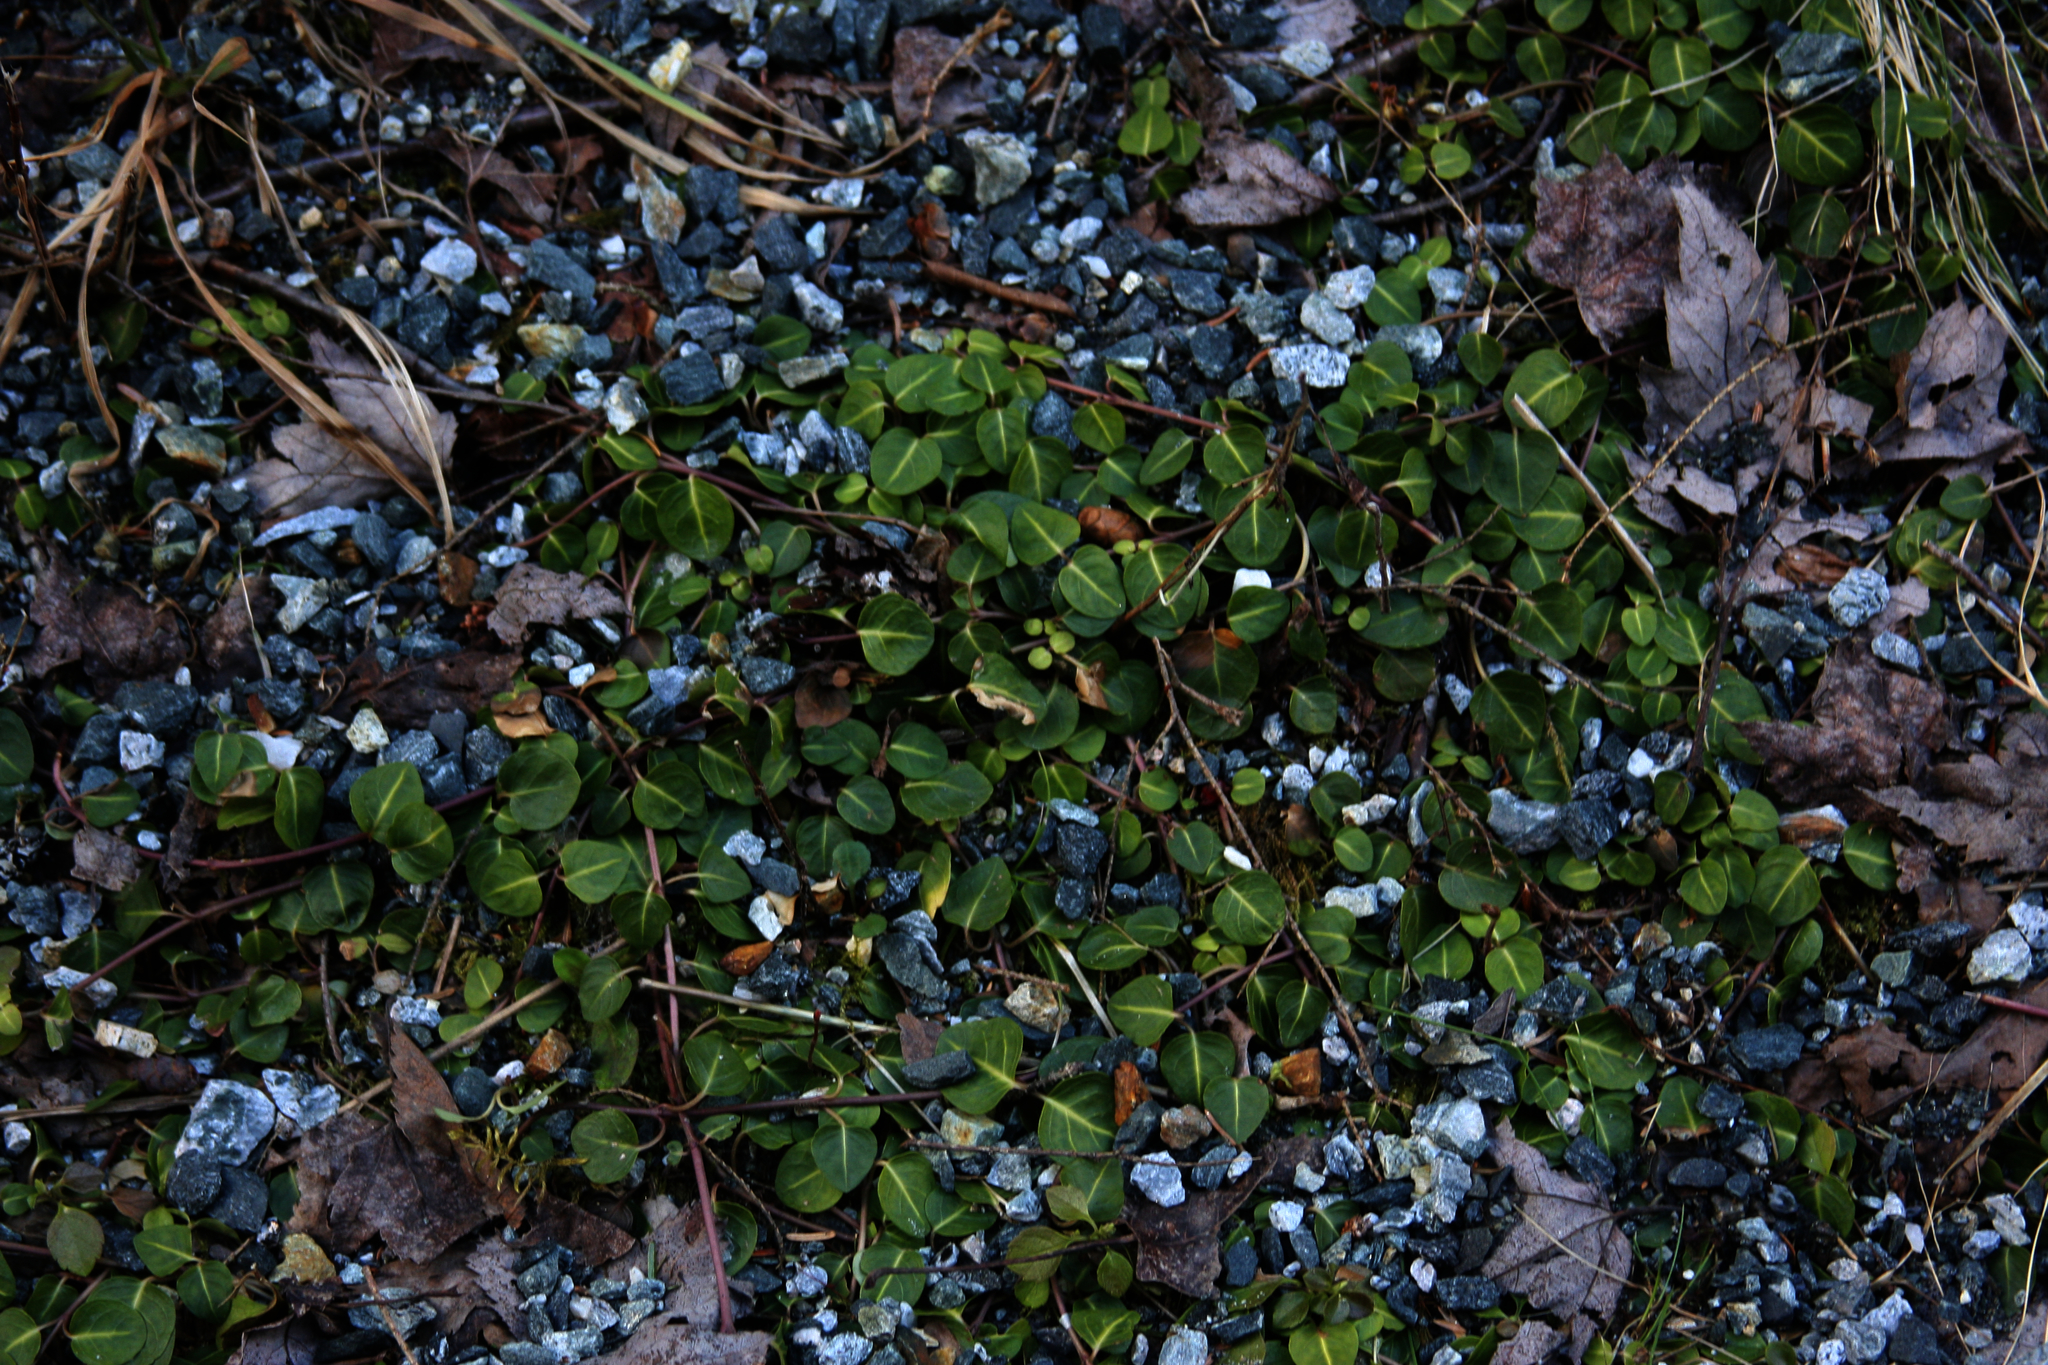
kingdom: Plantae
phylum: Tracheophyta
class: Magnoliopsida
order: Gentianales
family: Rubiaceae
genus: Mitchella
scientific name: Mitchella repens
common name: Partridge-berry
